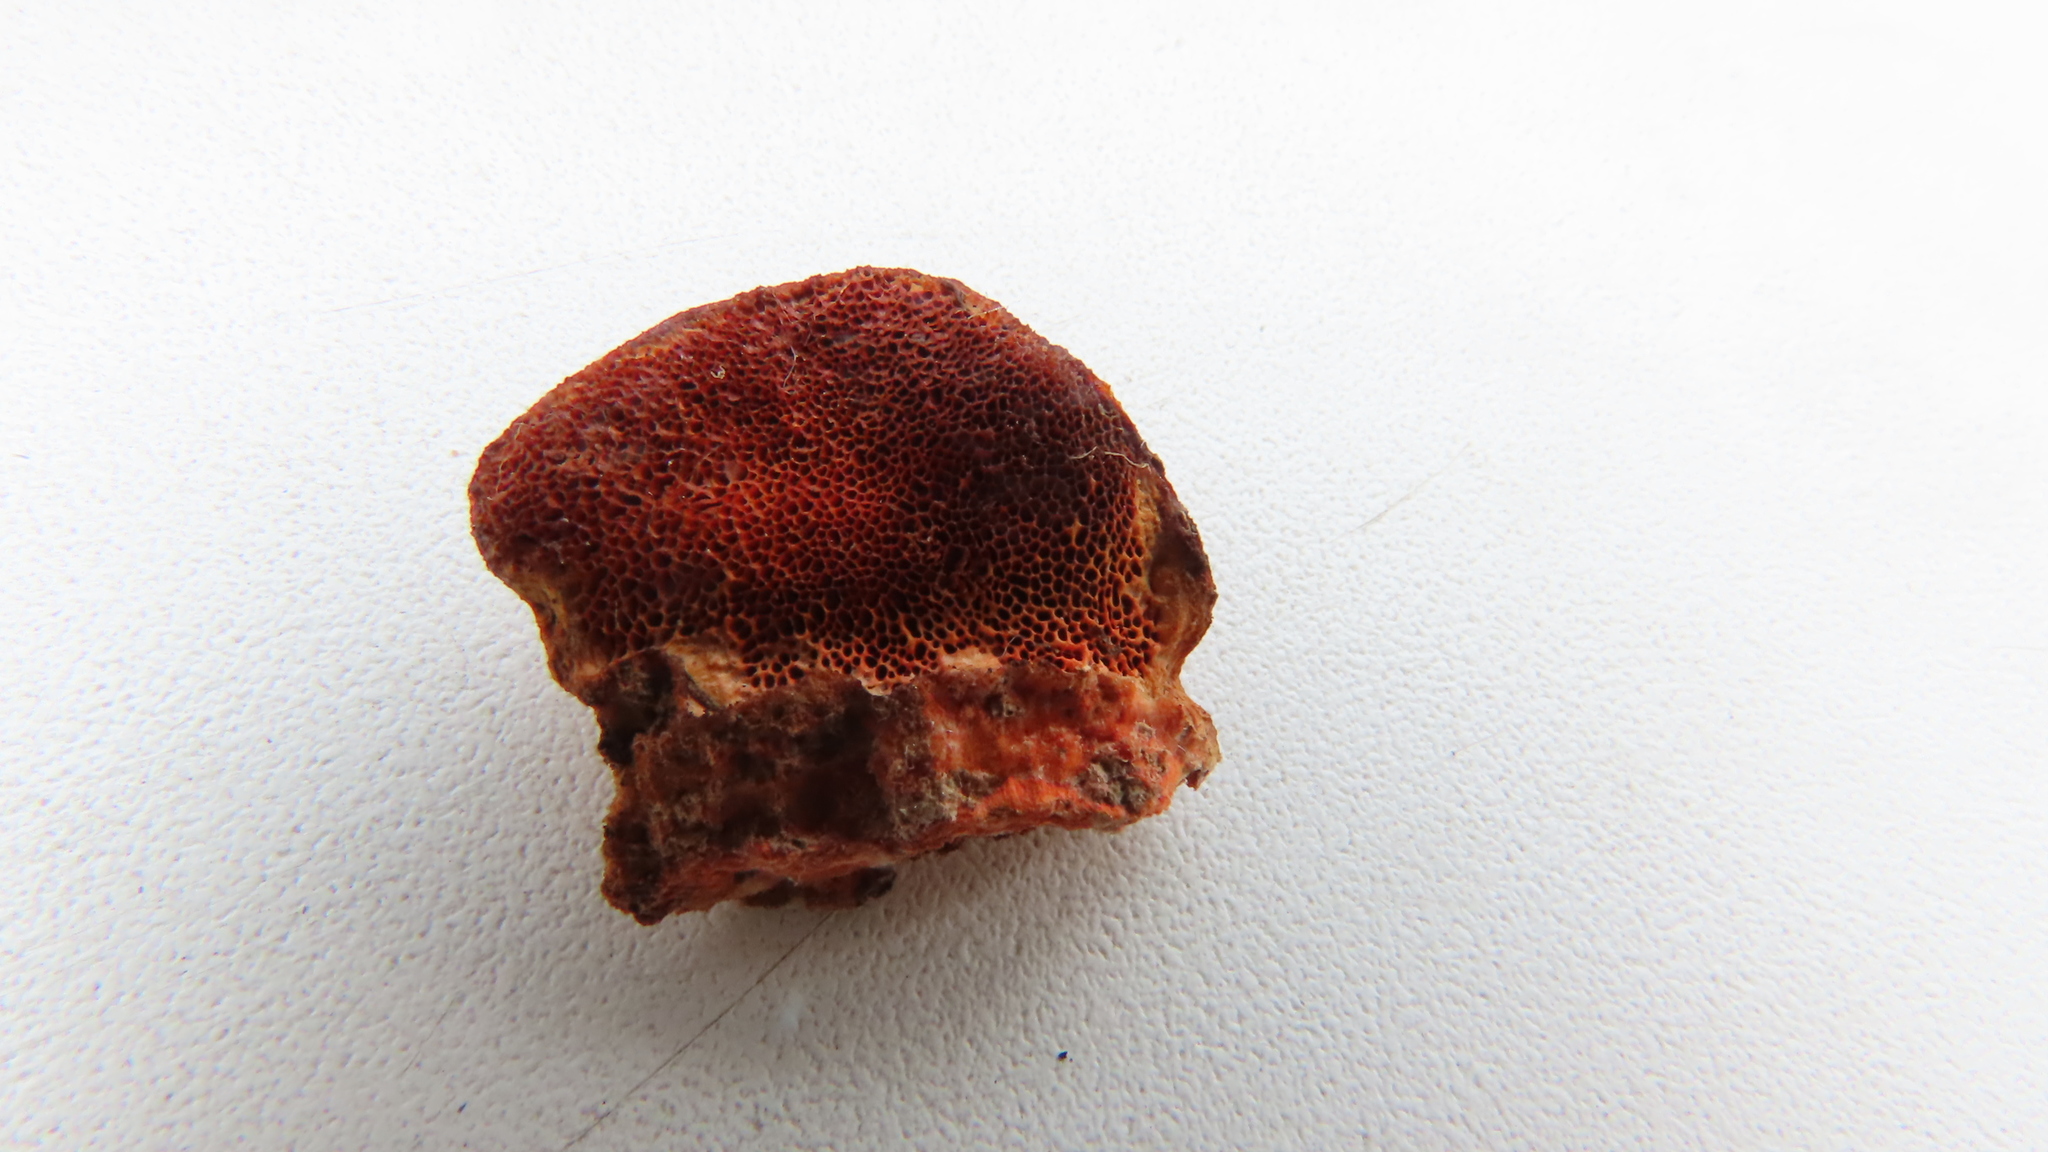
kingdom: Fungi
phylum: Basidiomycota
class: Agaricomycetes
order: Polyporales
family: Polyporaceae
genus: Trametes
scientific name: Trametes cinnabarina
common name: Northern cinnabar polypore
